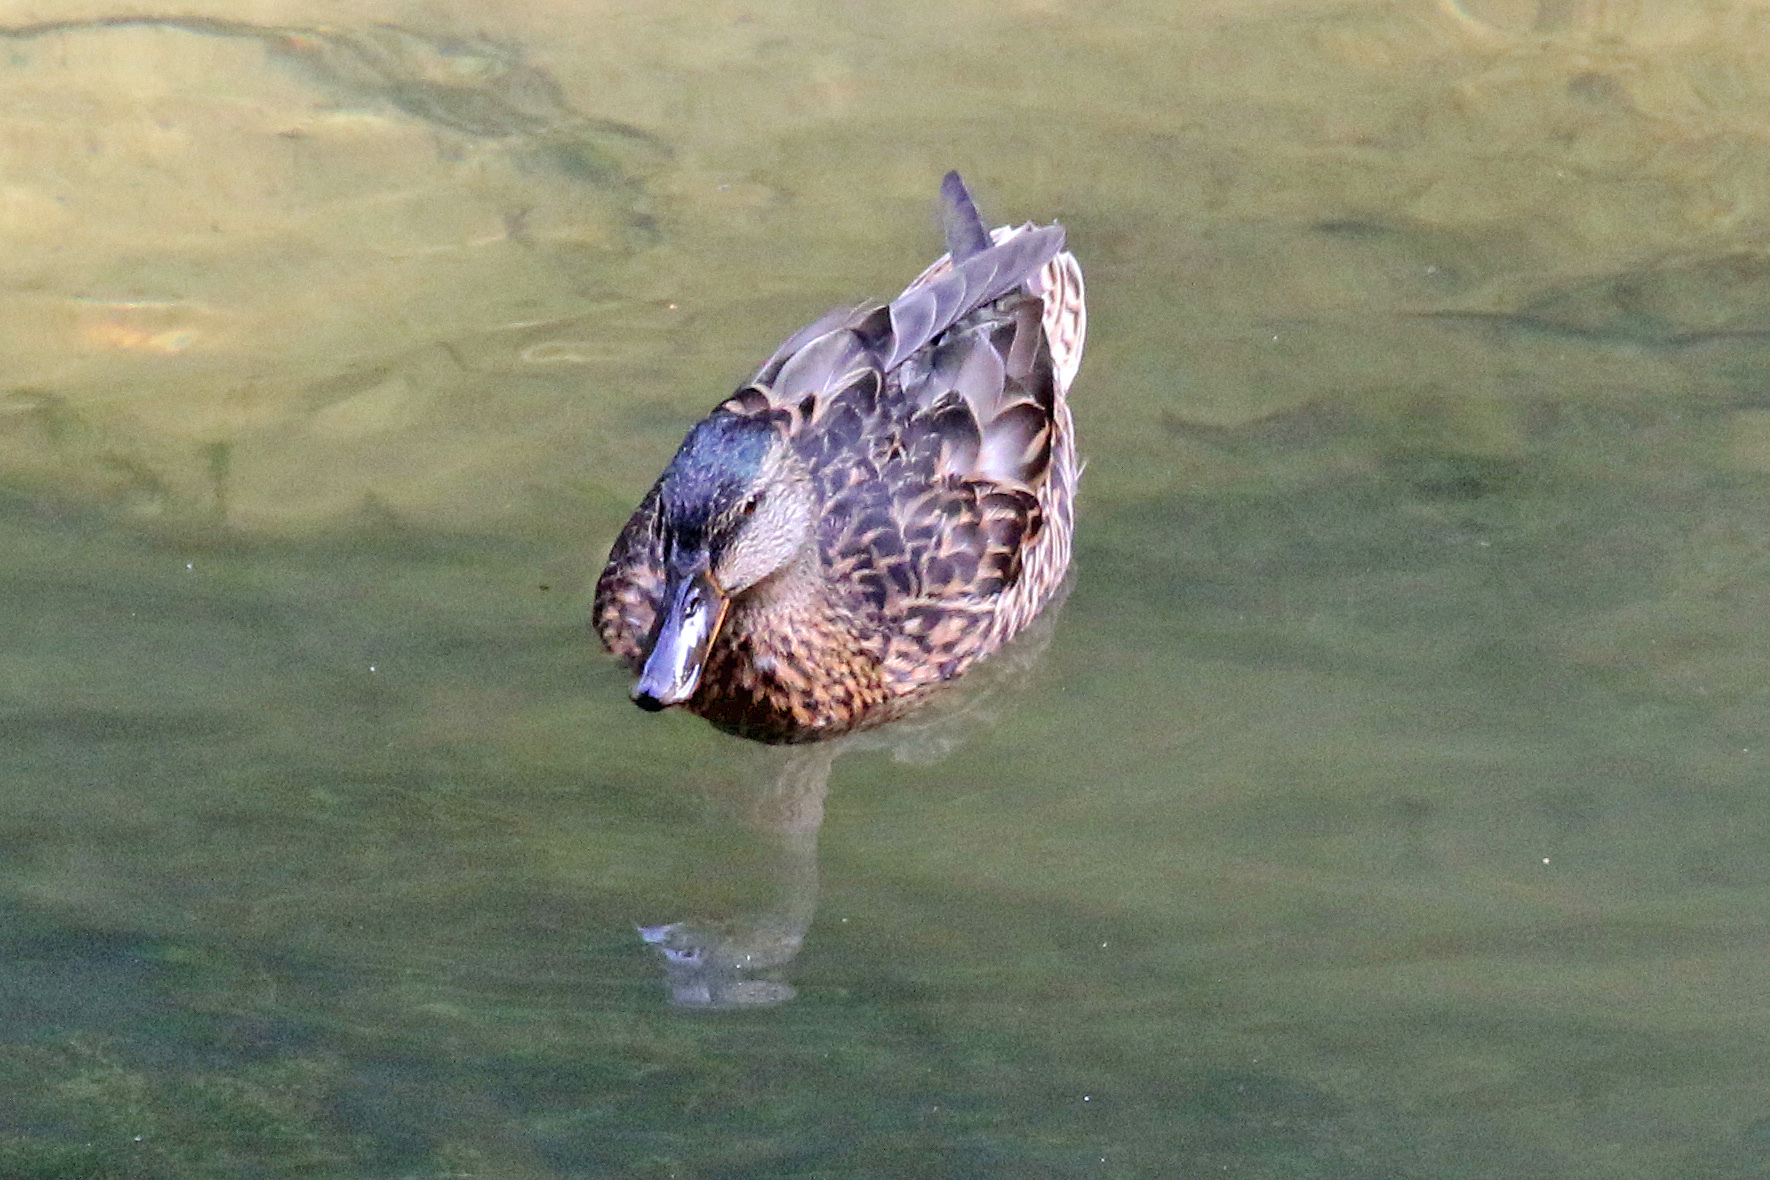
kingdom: Animalia
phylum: Chordata
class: Aves
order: Anseriformes
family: Anatidae
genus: Anas
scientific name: Anas platyrhynchos
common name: Mallard
